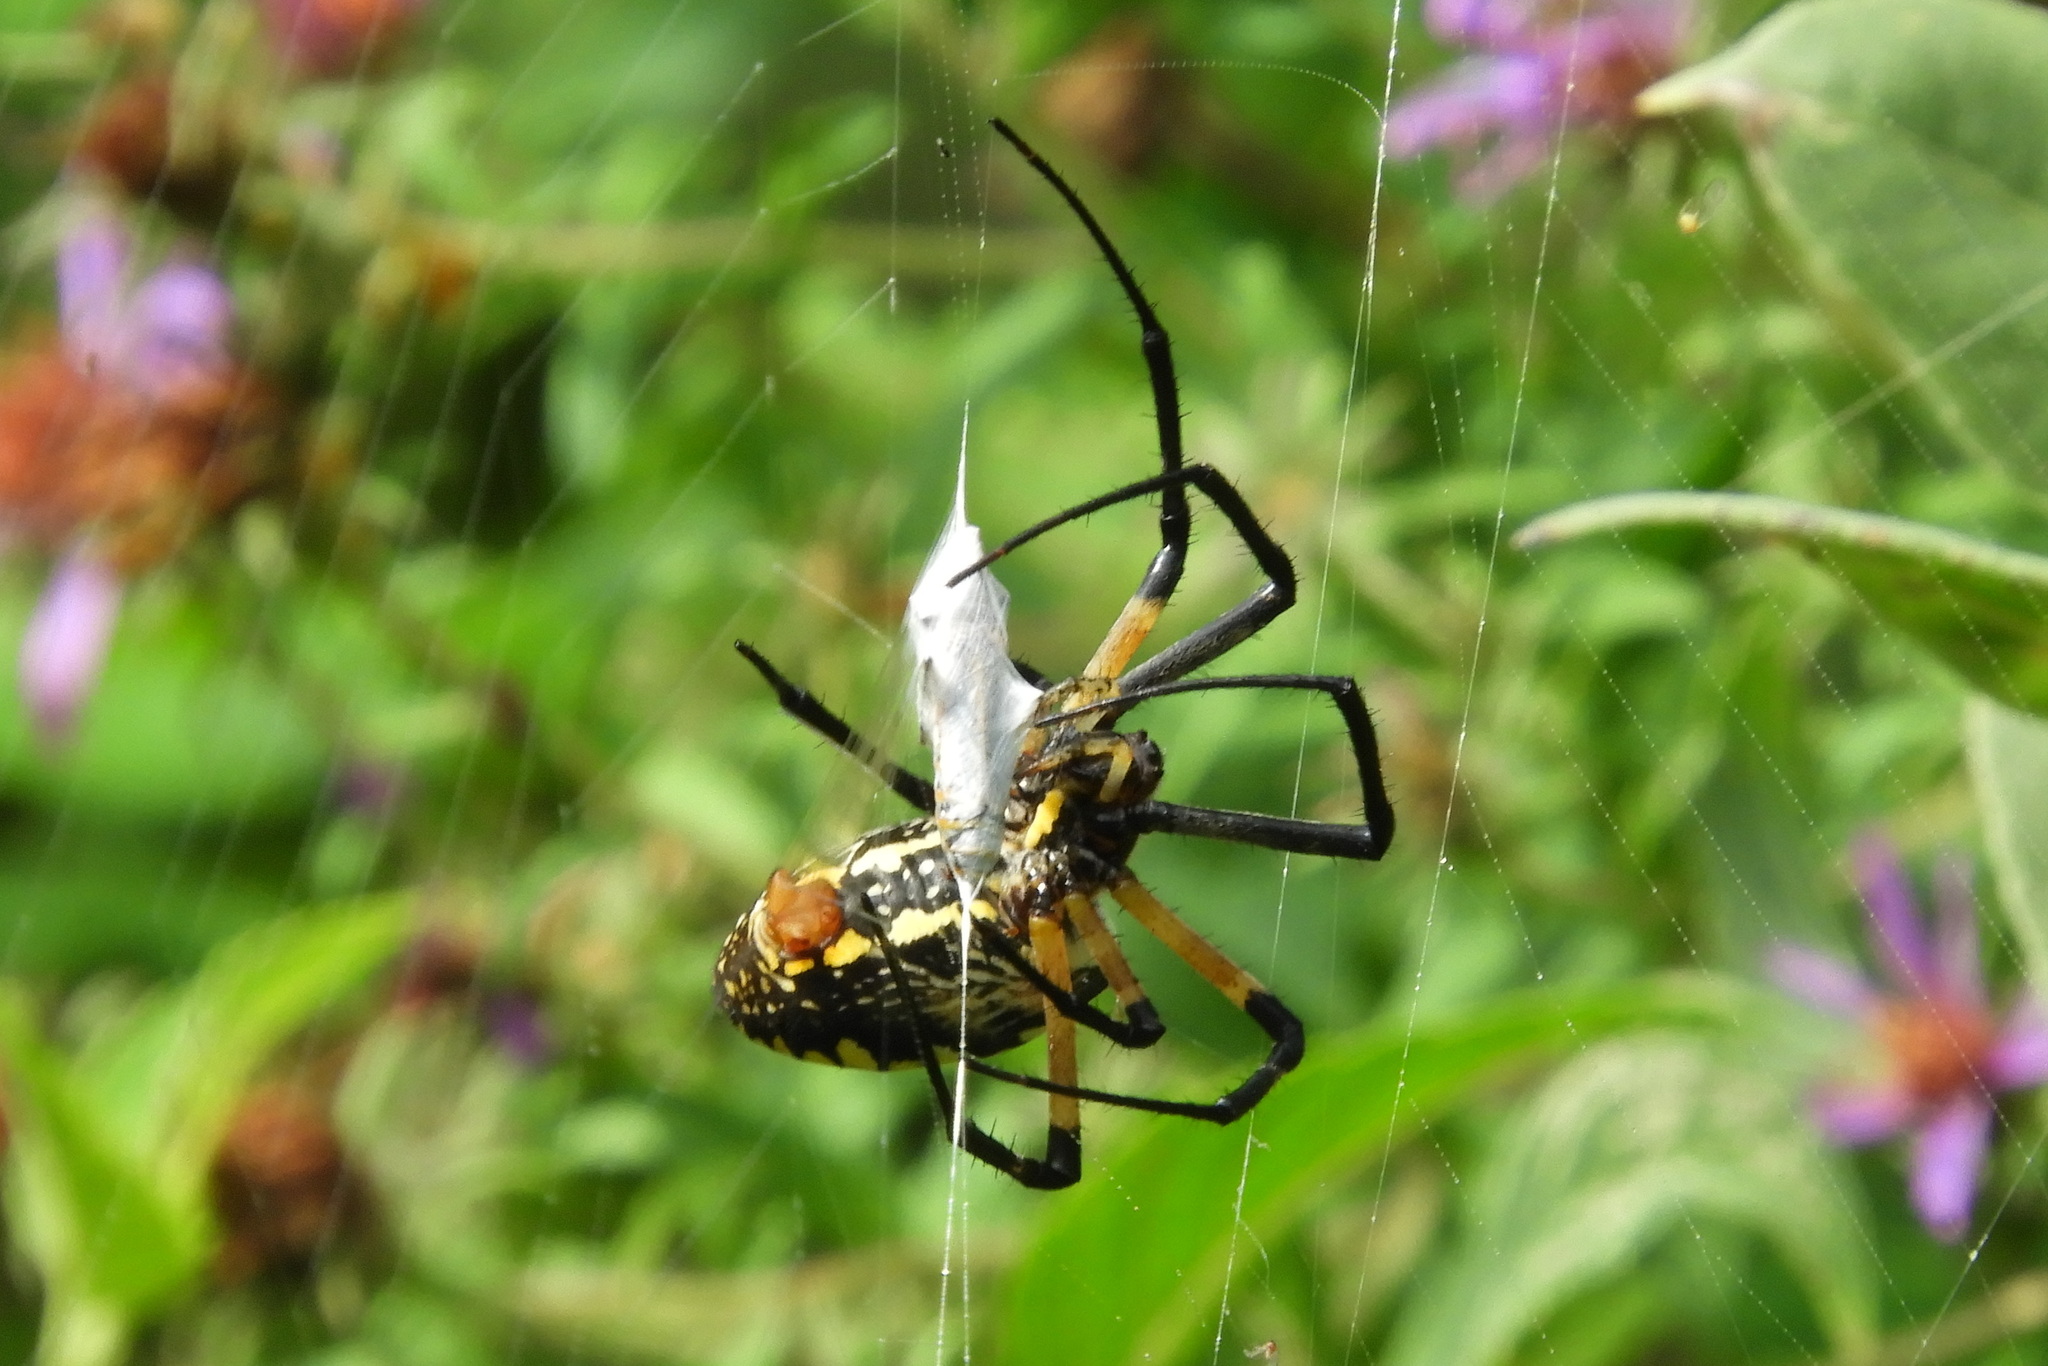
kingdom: Animalia
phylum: Arthropoda
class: Arachnida
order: Araneae
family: Araneidae
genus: Argiope
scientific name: Argiope aurantia
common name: Orb weavers
